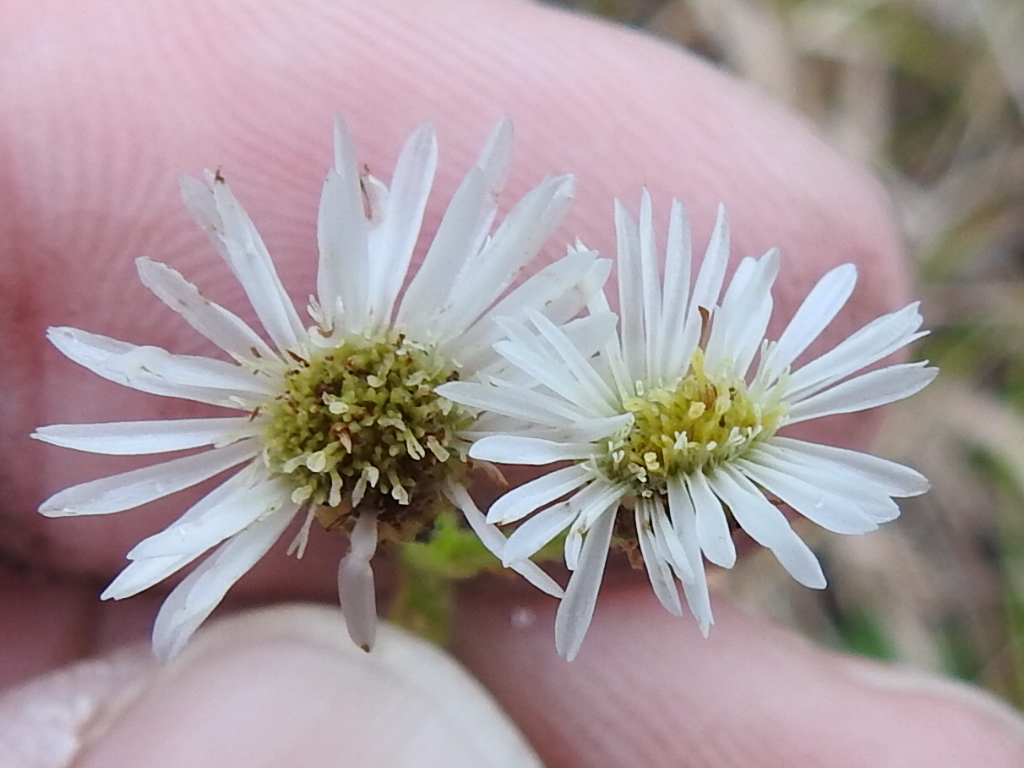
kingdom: Plantae
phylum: Tracheophyta
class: Magnoliopsida
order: Asterales
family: Asteraceae
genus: Erigeron
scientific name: Erigeron vernus
